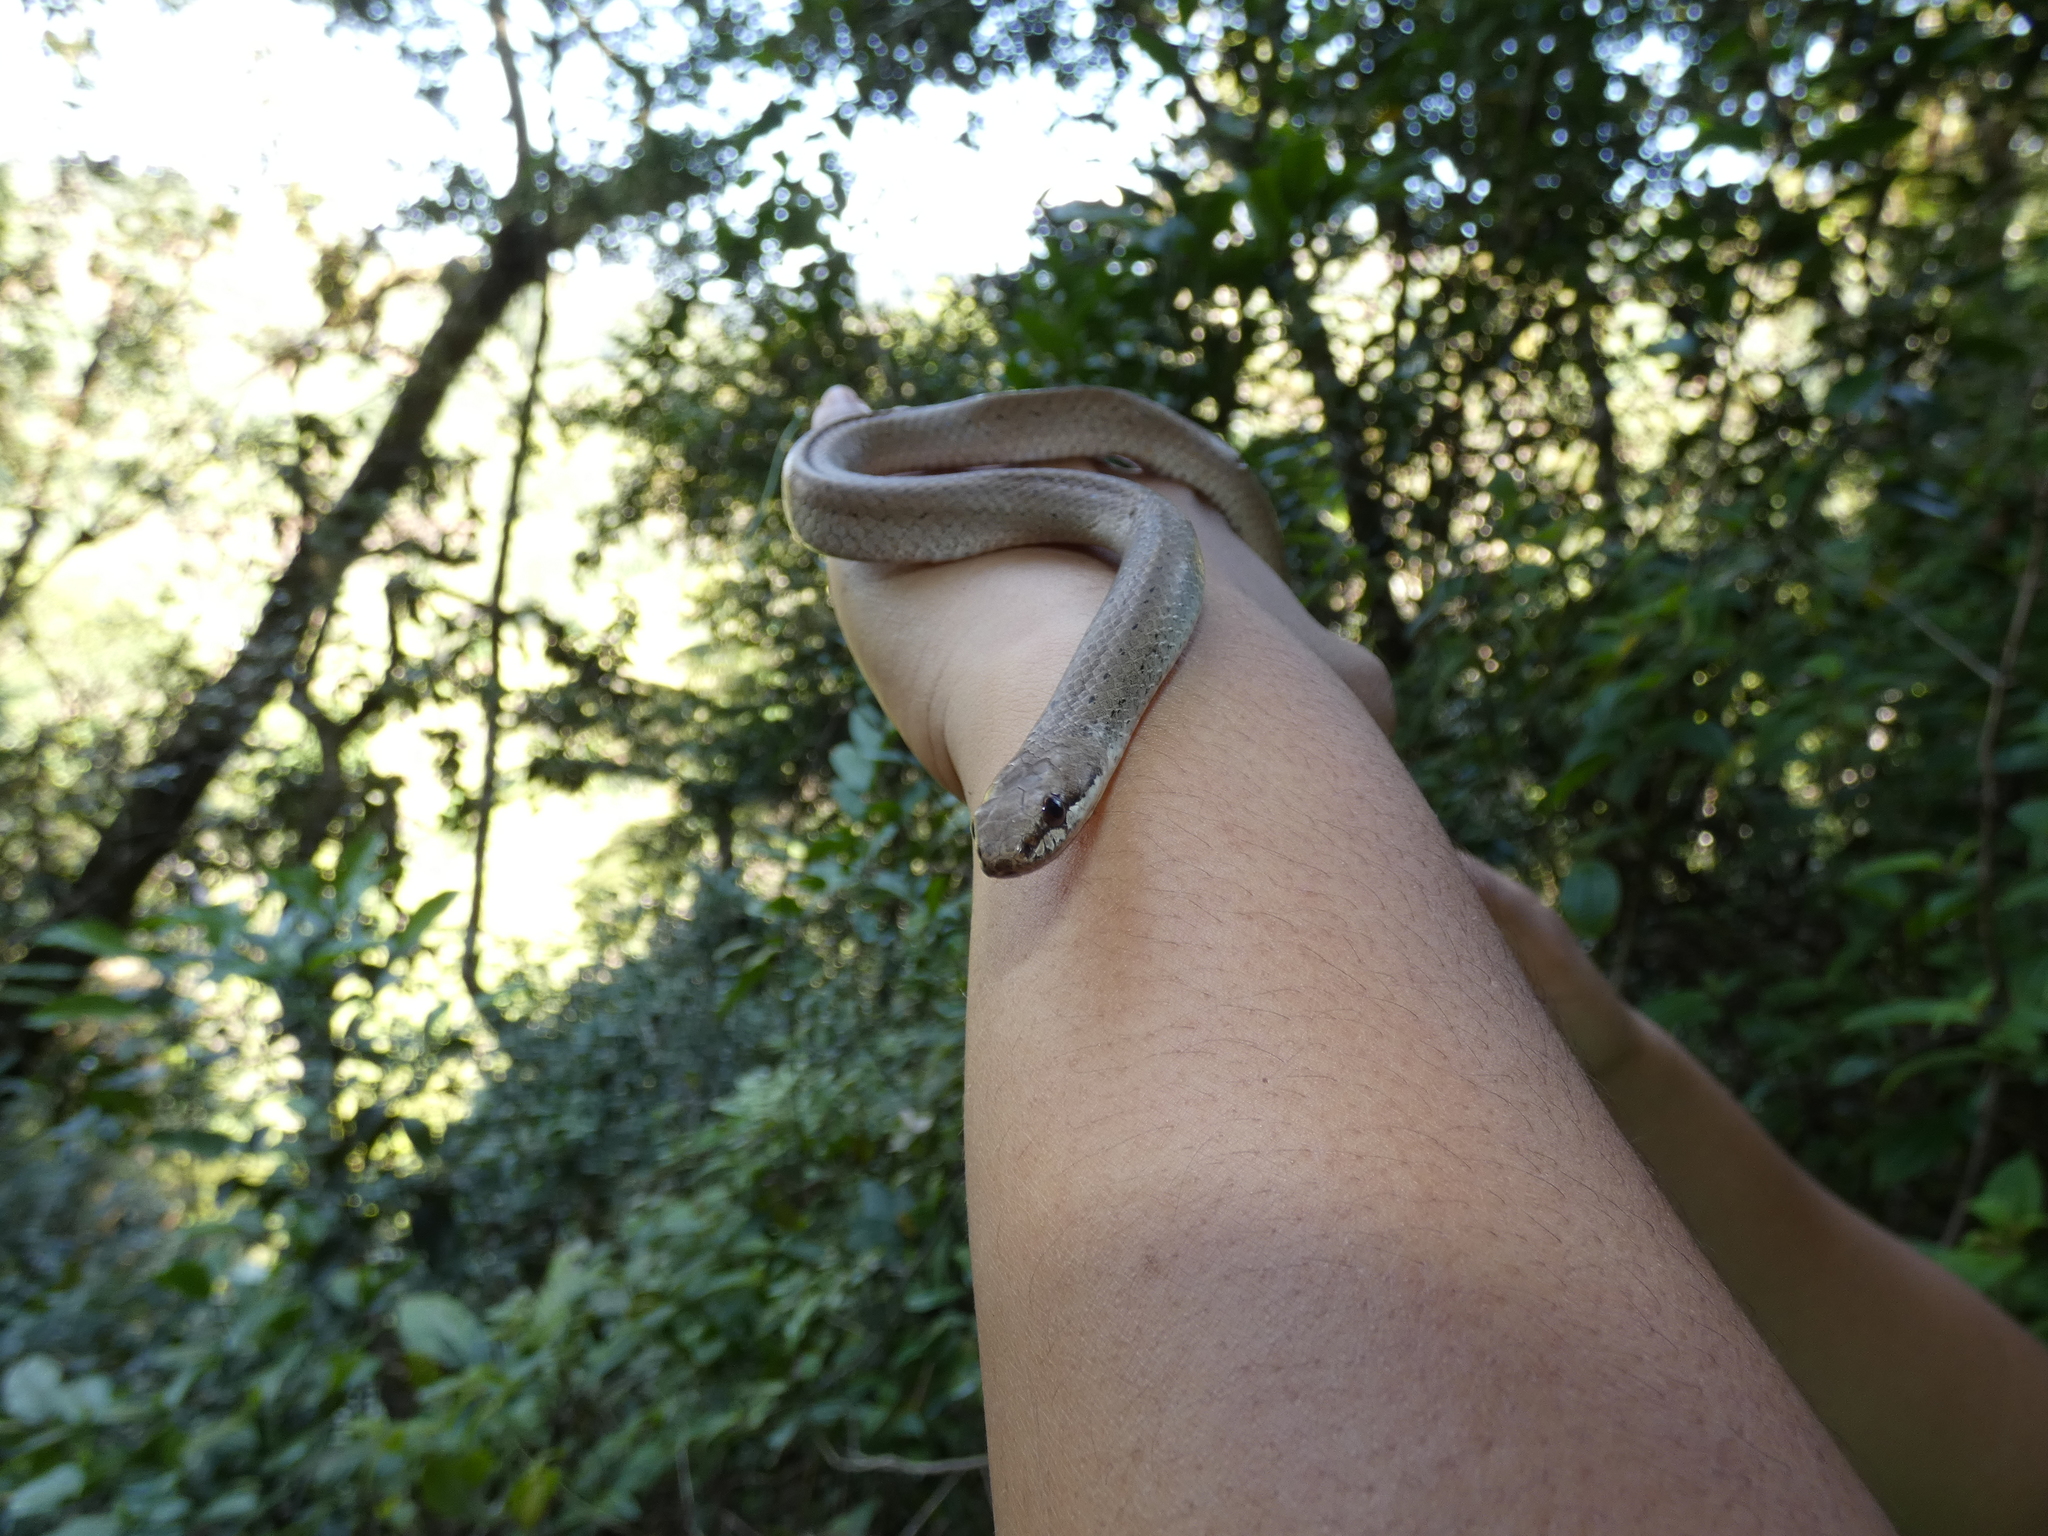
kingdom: Animalia
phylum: Chordata
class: Squamata
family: Pseudoxyrhophiidae
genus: Liophidium
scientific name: Liophidium torquatum
